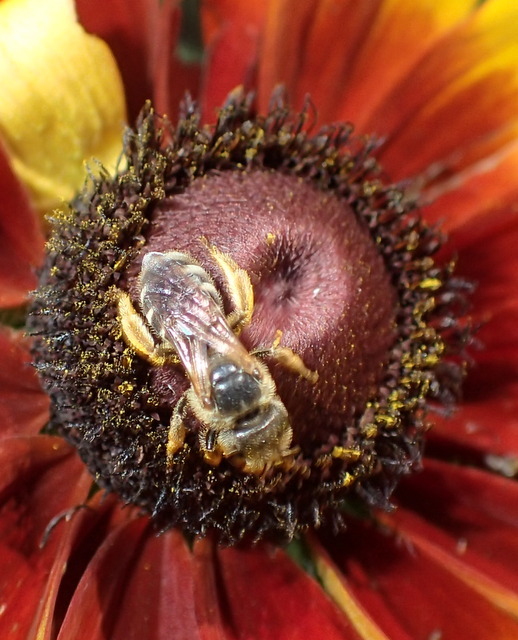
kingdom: Animalia
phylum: Arthropoda
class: Insecta
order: Hymenoptera
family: Halictidae
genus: Halictus
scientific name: Halictus poeyi
